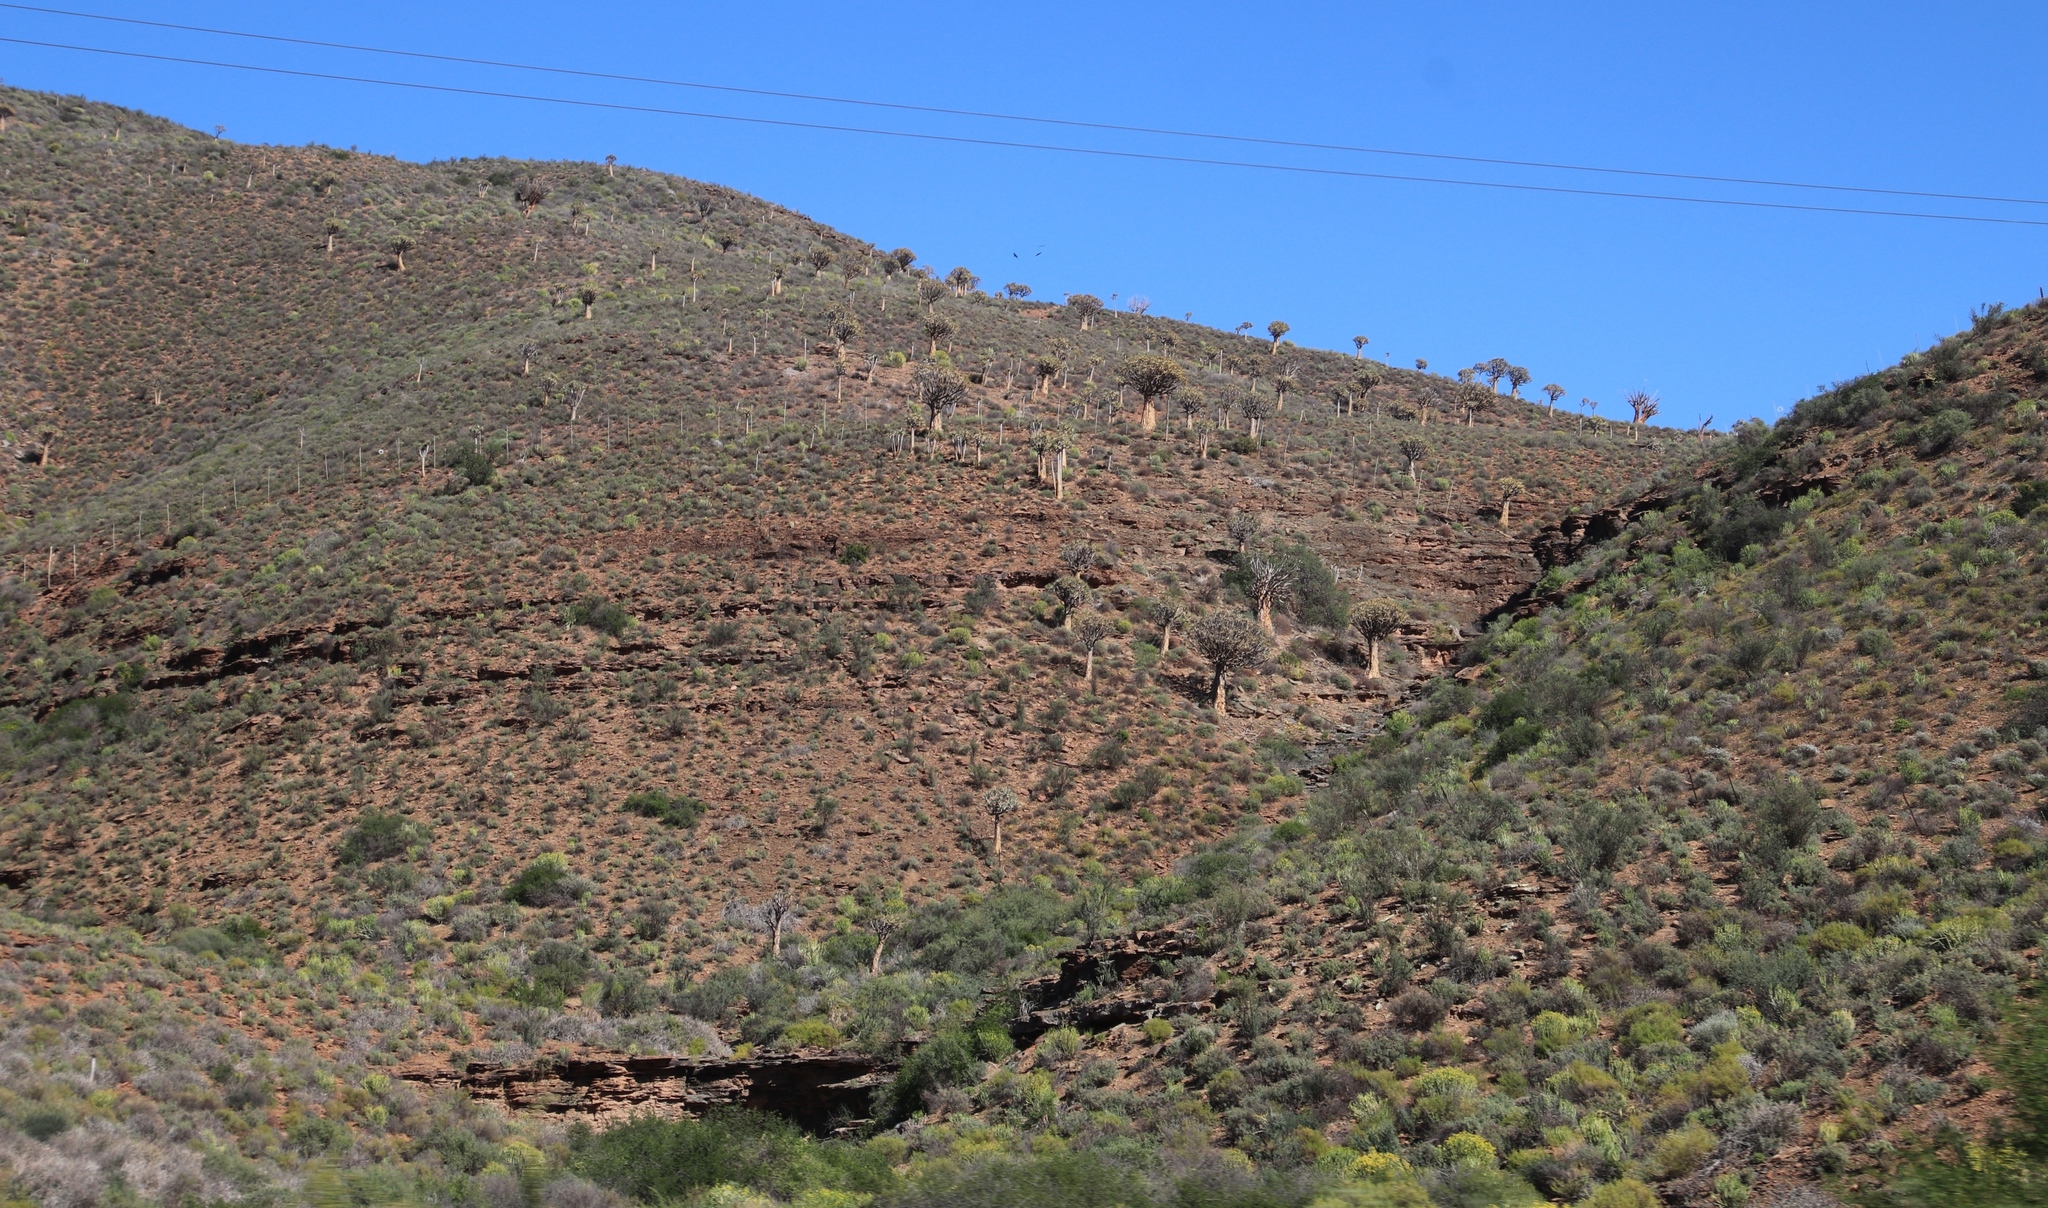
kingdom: Plantae
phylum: Tracheophyta
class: Liliopsida
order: Asparagales
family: Asphodelaceae
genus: Aloidendron
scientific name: Aloidendron dichotomum
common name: Quiver tree
